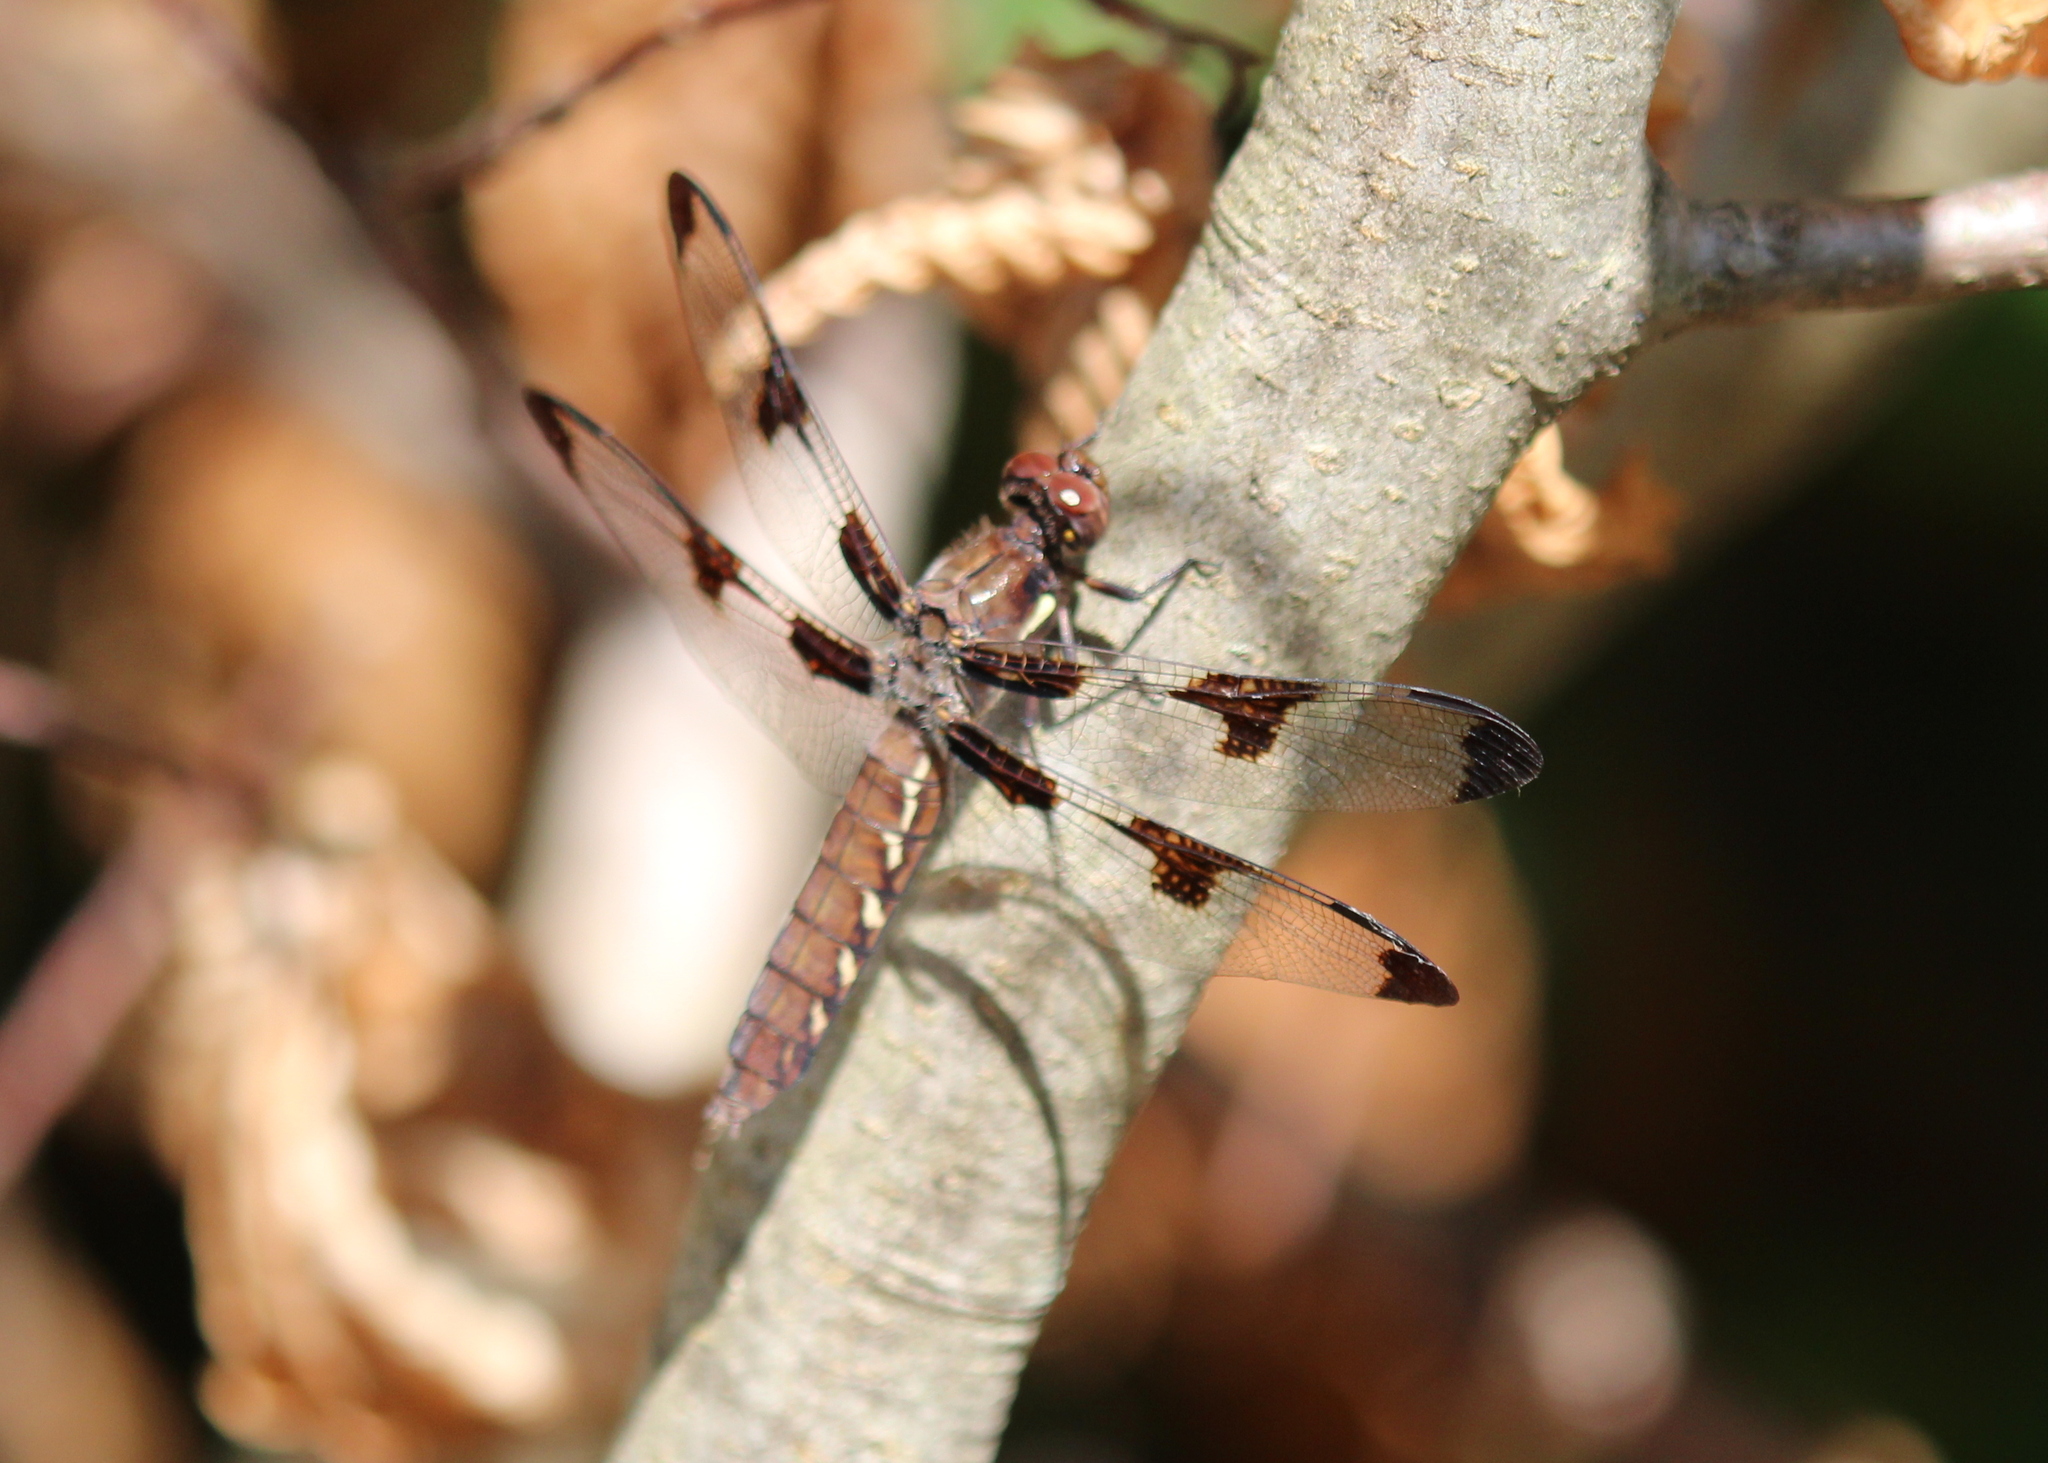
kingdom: Animalia
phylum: Arthropoda
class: Insecta
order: Odonata
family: Libellulidae
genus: Plathemis
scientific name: Plathemis lydia
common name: Common whitetail
